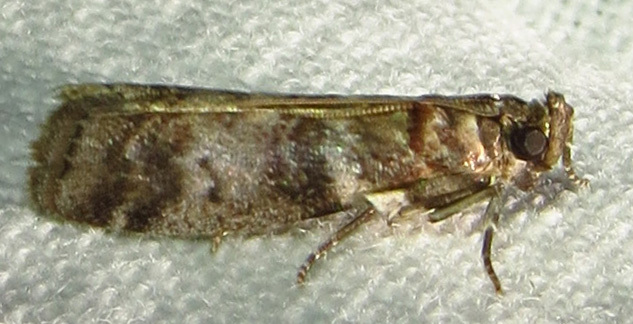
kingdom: Animalia
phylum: Arthropoda
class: Insecta
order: Lepidoptera
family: Pyralidae
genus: Sciota
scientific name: Sciota uvinella
